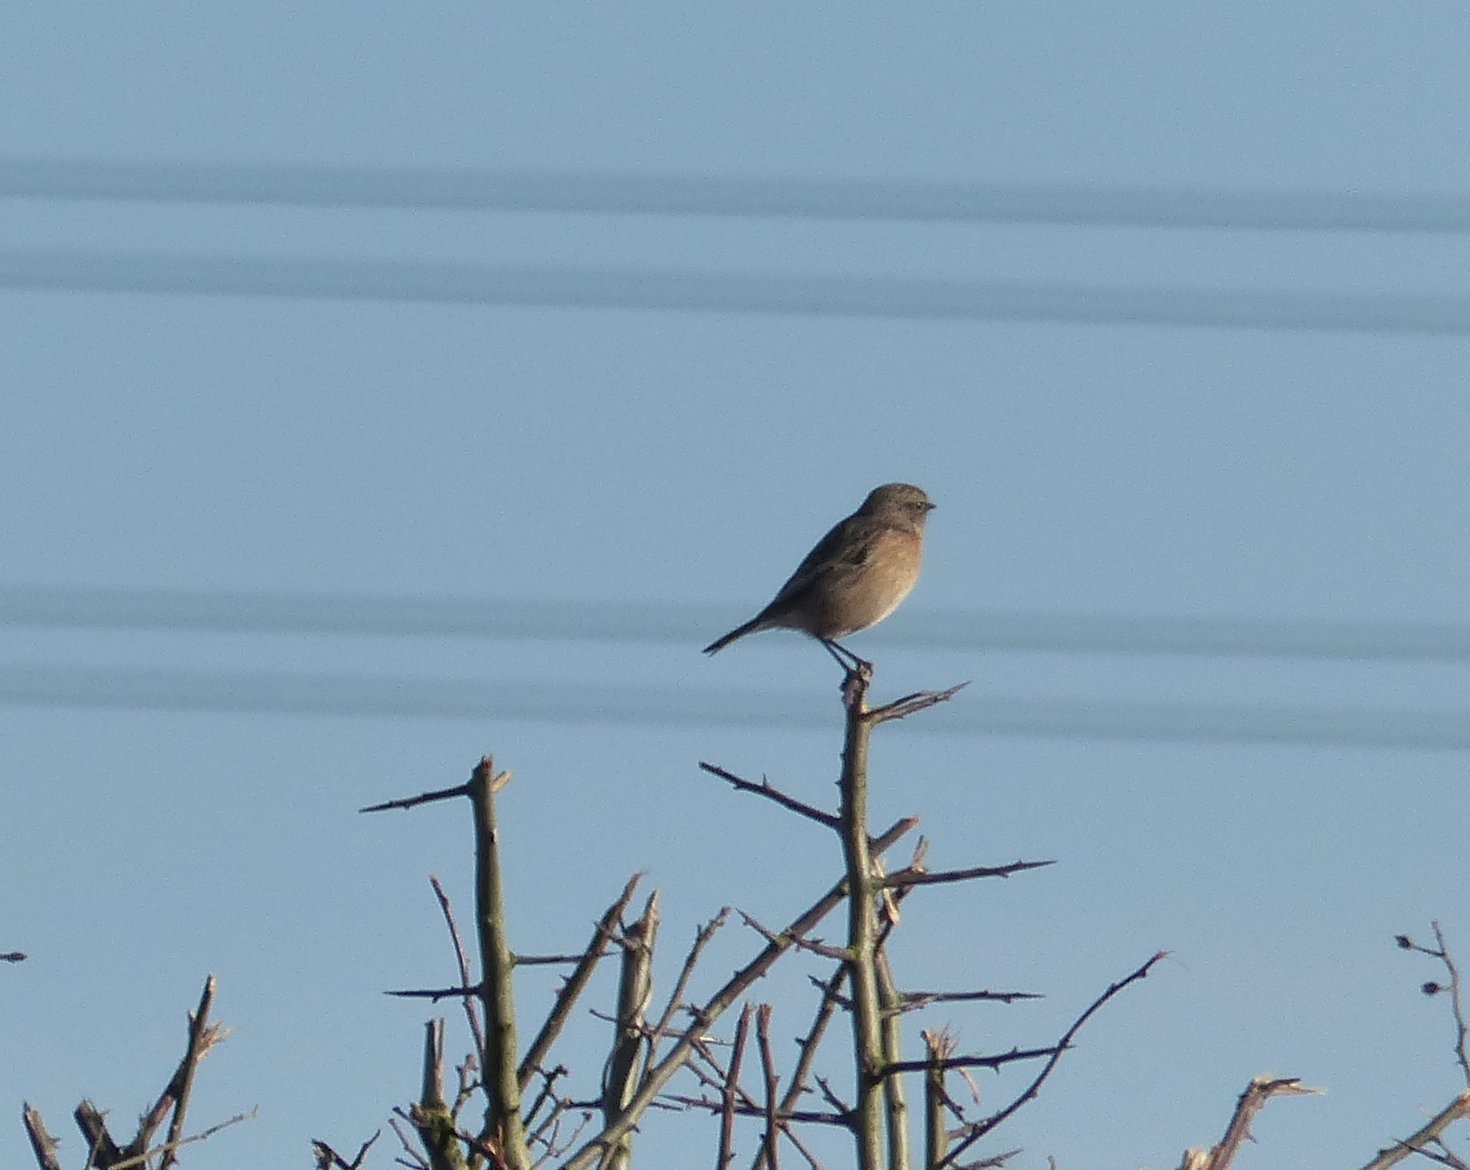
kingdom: Animalia
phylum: Chordata
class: Aves
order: Passeriformes
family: Muscicapidae
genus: Saxicola
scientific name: Saxicola rubicola
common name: European stonechat
